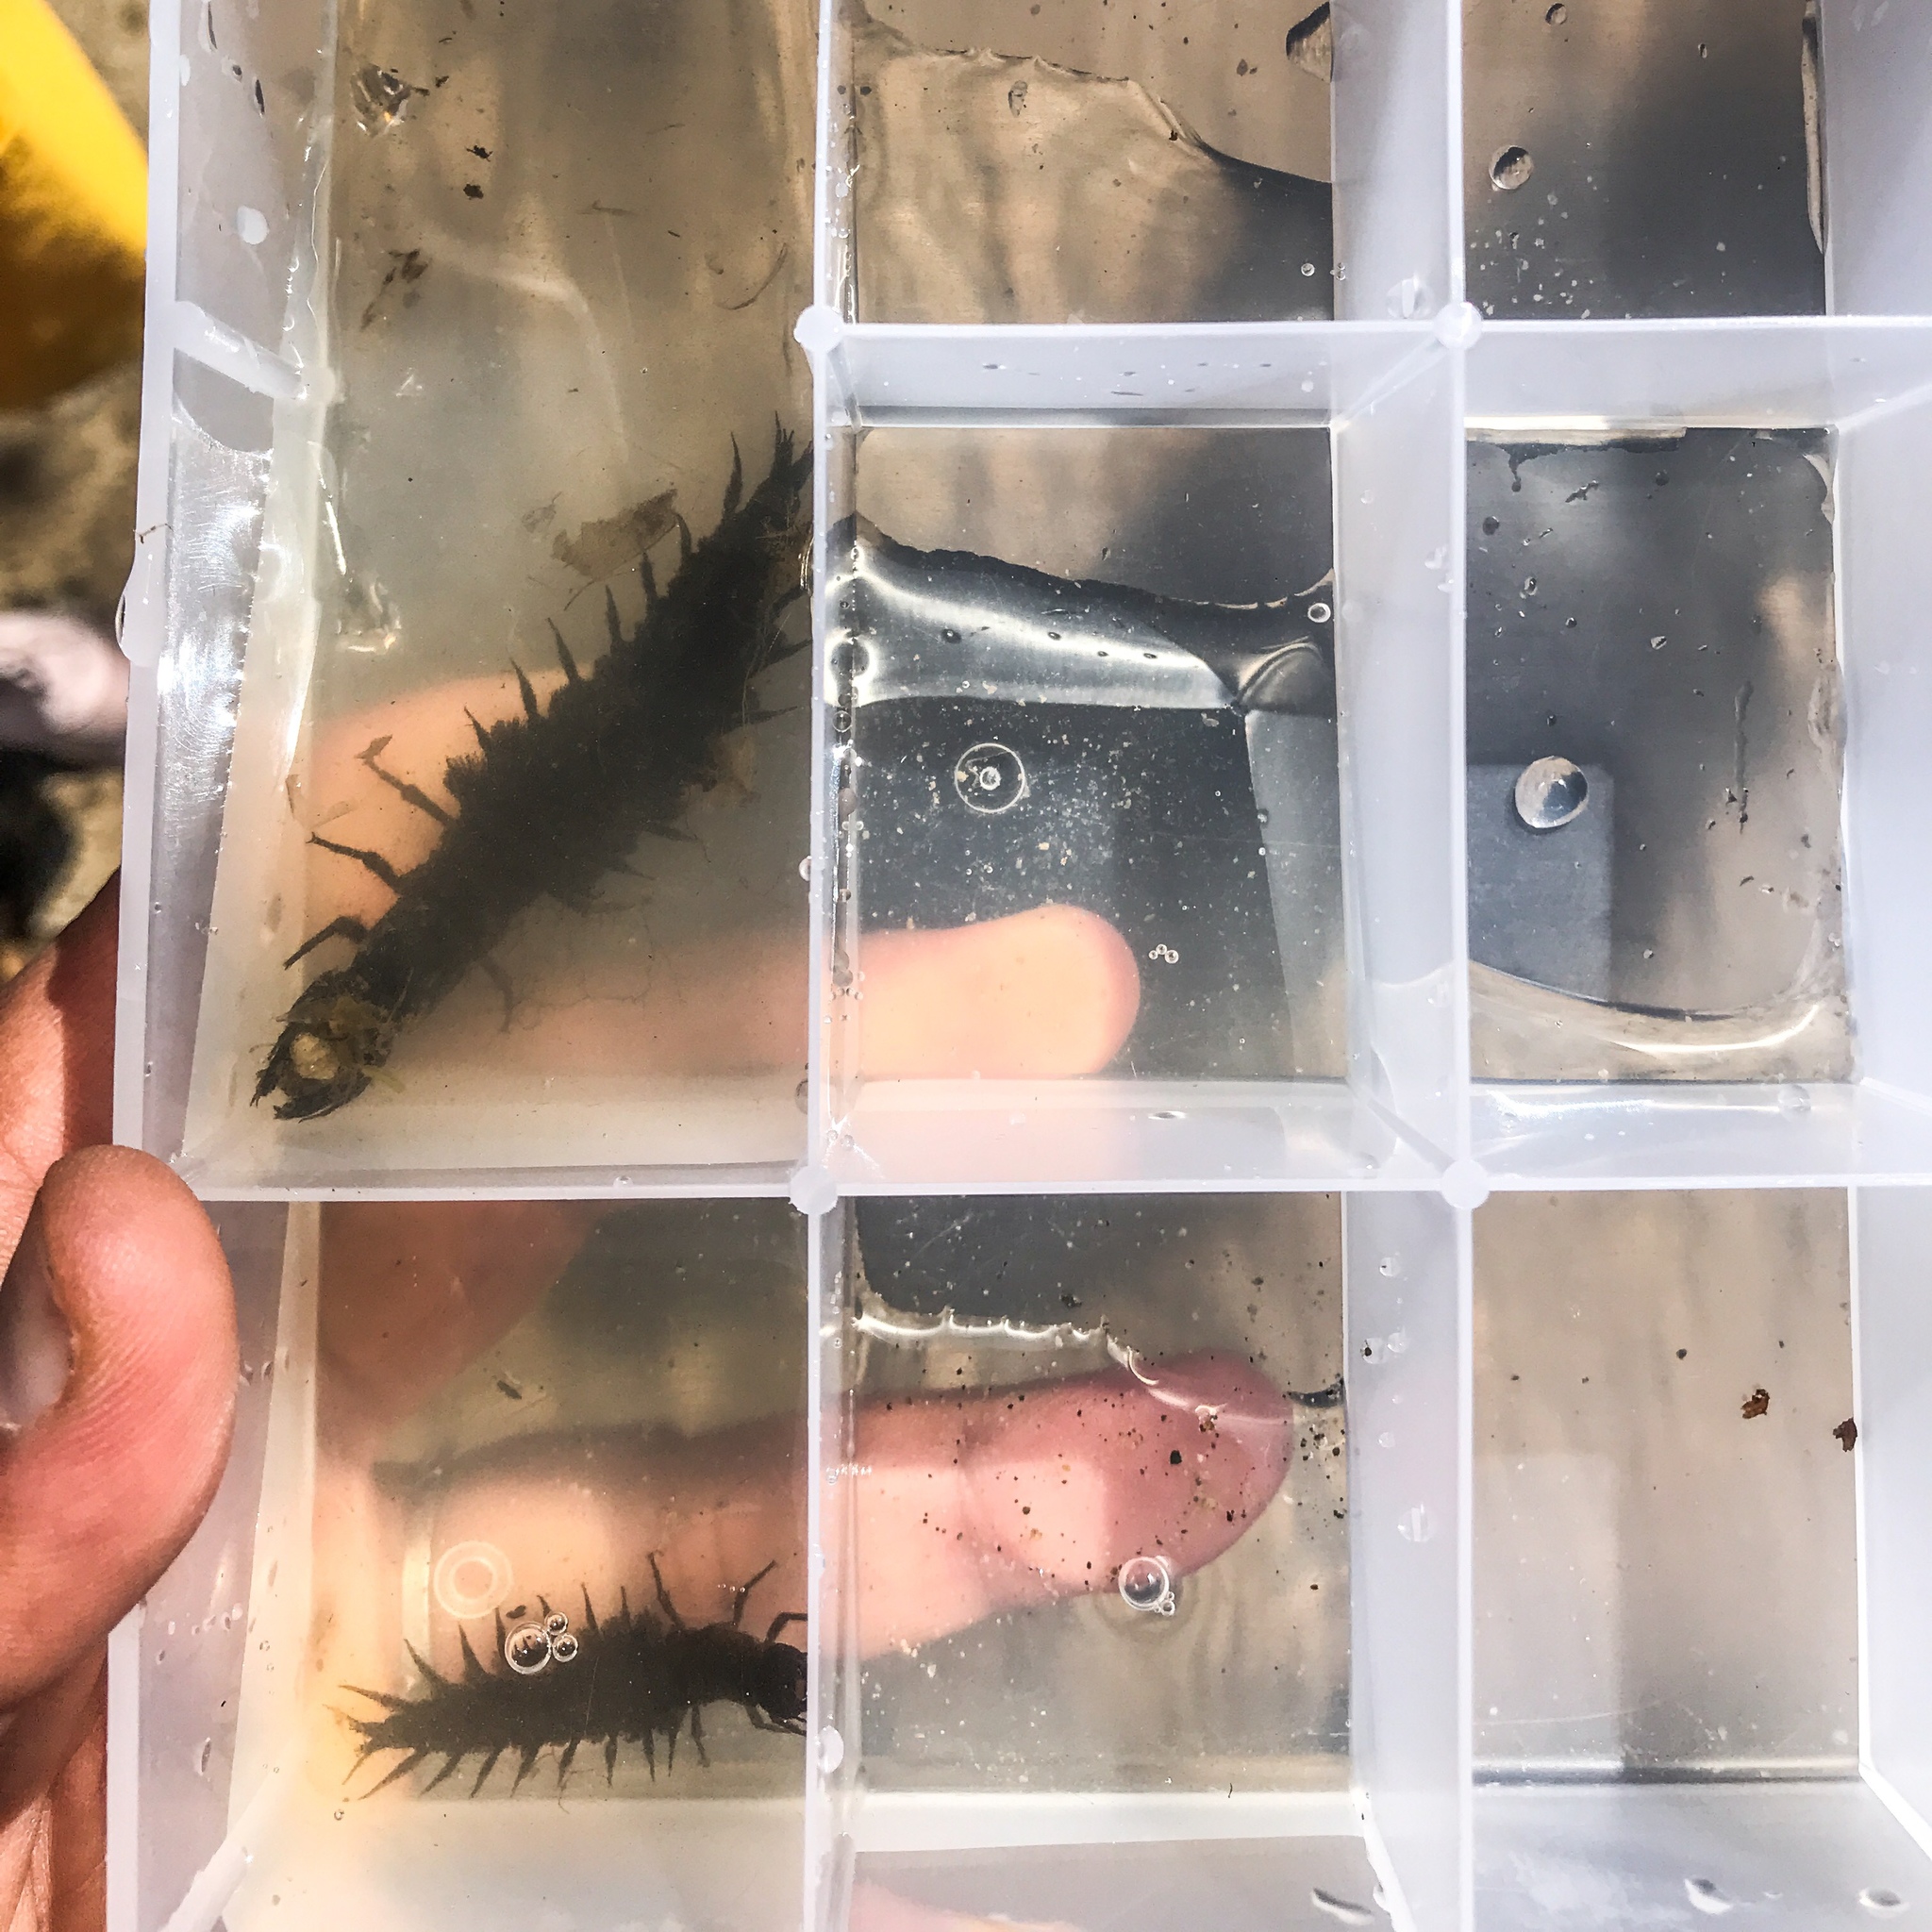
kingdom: Animalia
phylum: Arthropoda
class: Insecta
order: Megaloptera
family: Corydalidae
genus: Corydalus
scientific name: Corydalus cornutus
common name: Dobsonfly
